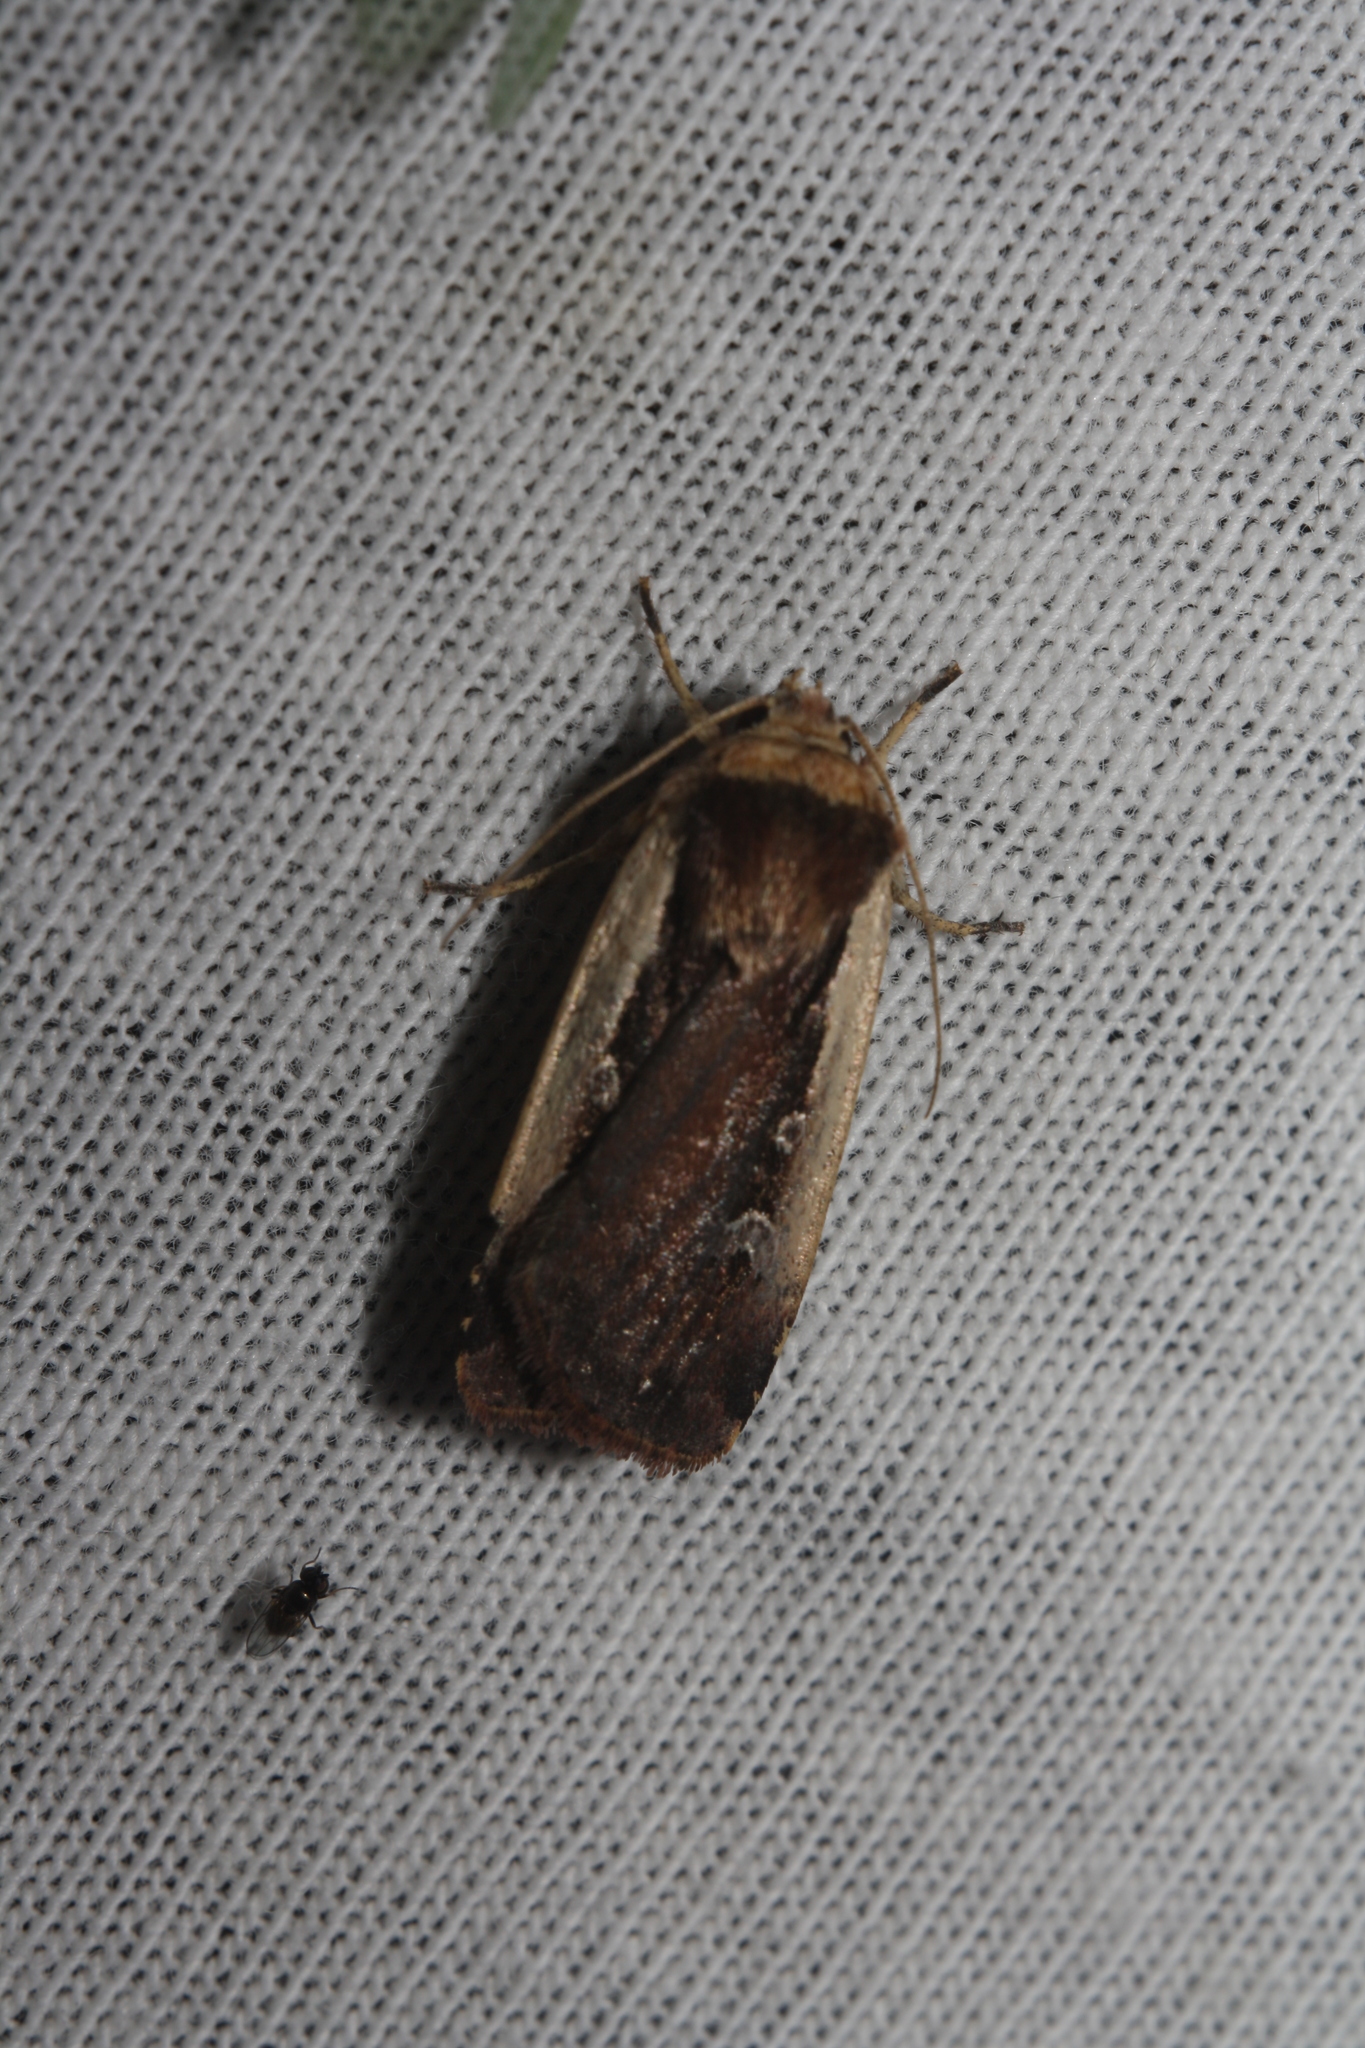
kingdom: Animalia
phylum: Arthropoda
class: Insecta
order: Lepidoptera
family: Noctuidae
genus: Ochropleura
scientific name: Ochropleura plecta
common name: Flame shoulder
